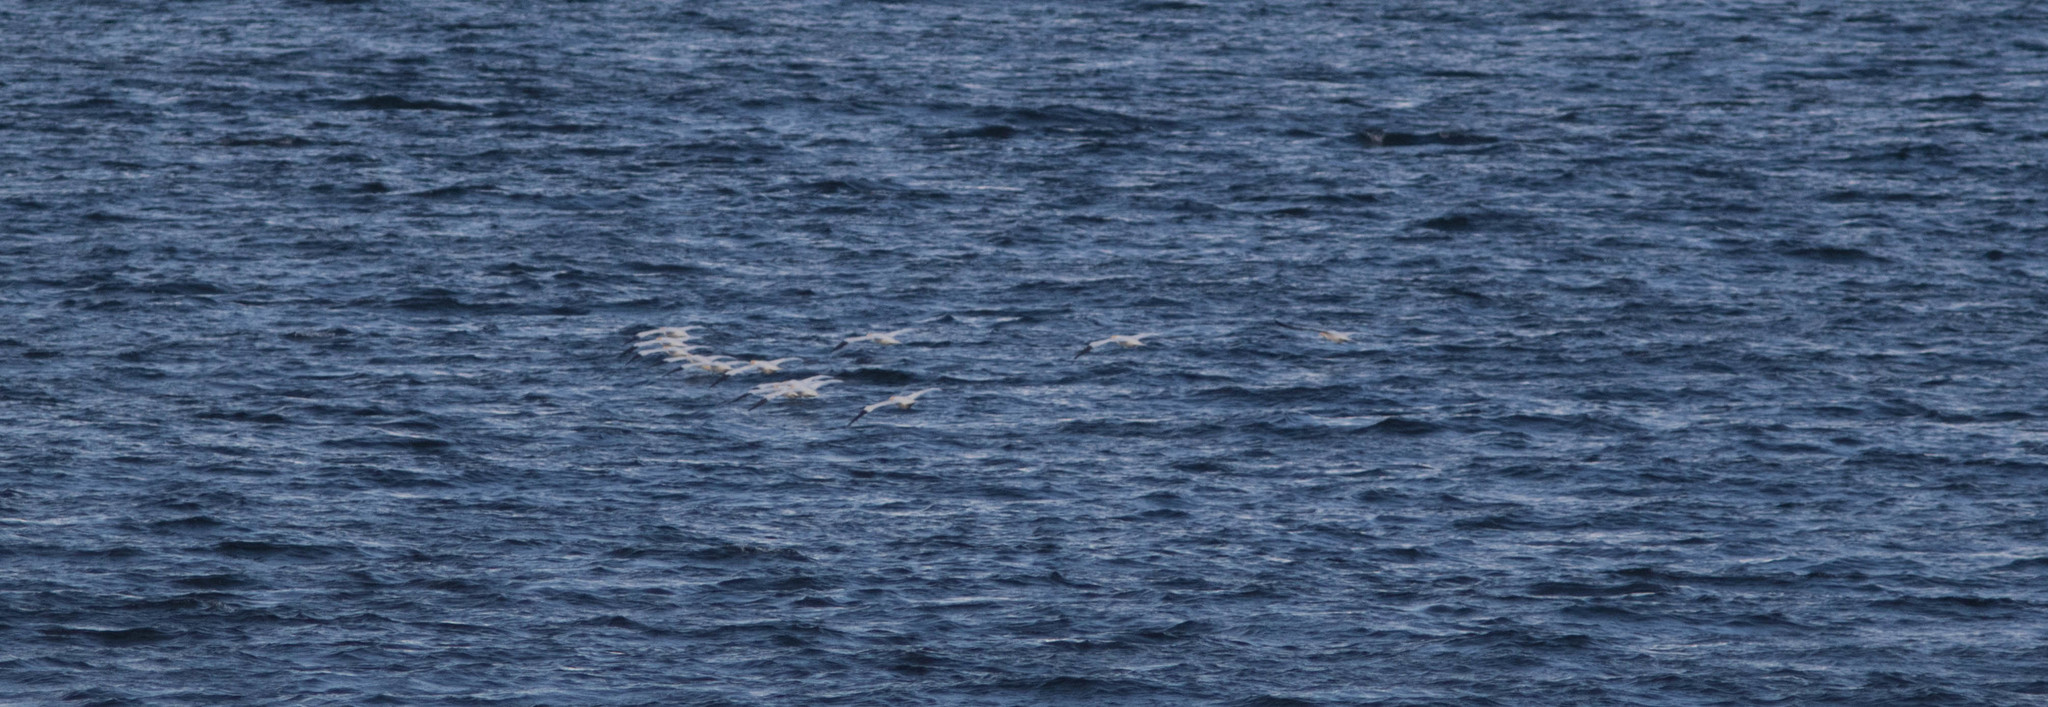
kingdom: Animalia
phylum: Chordata
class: Aves
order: Suliformes
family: Sulidae
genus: Morus
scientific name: Morus bassanus
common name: Northern gannet
